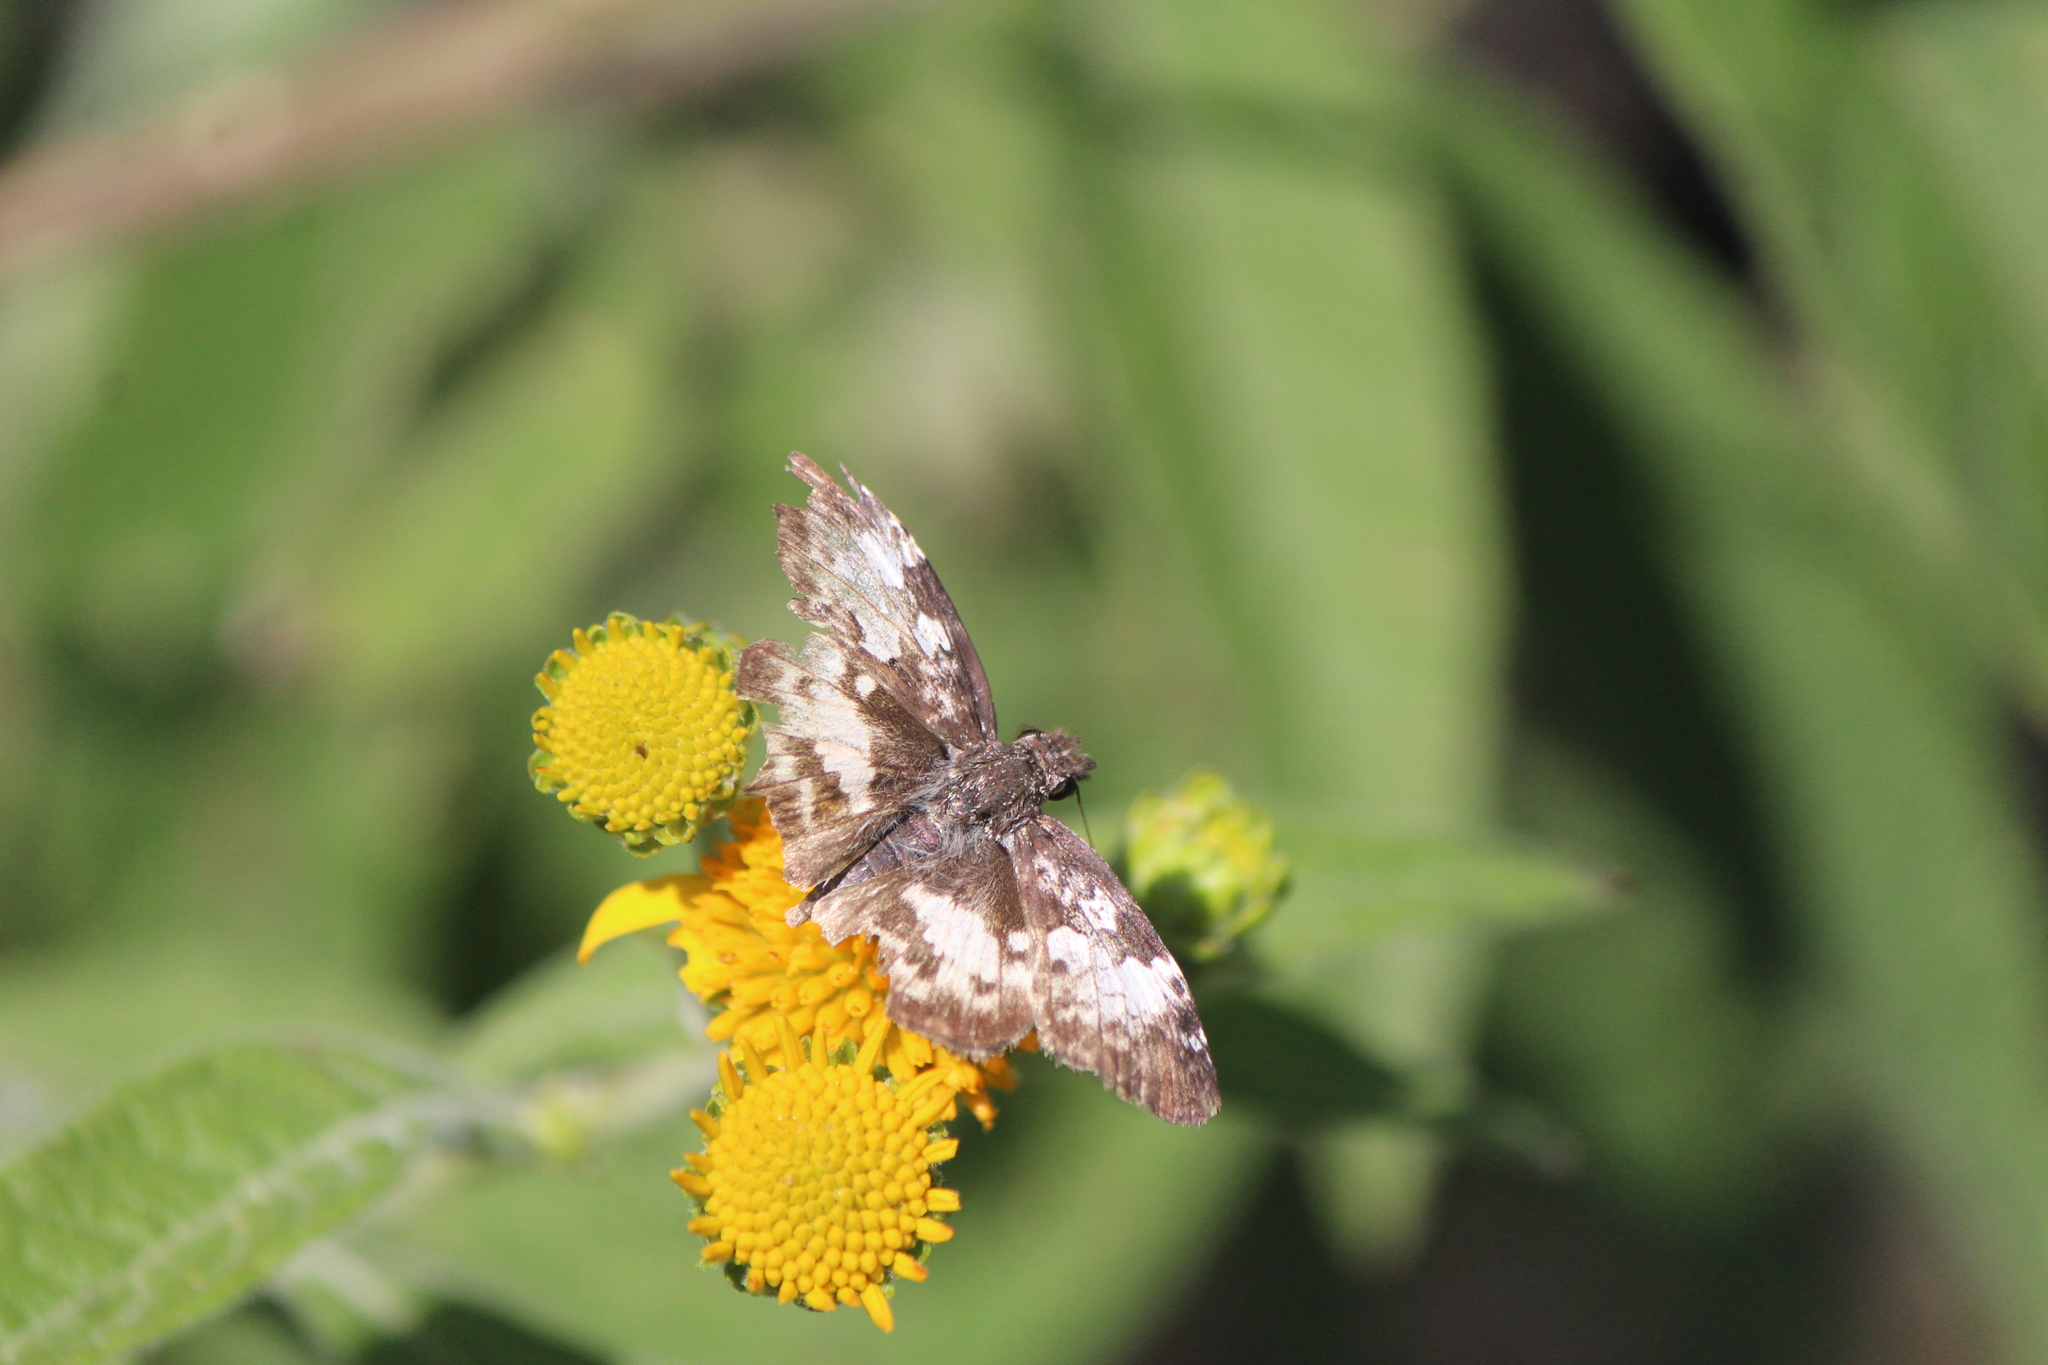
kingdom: Animalia
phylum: Arthropoda
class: Insecta
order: Lepidoptera
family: Hesperiidae
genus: Chiothion
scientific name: Chiothion georgina
